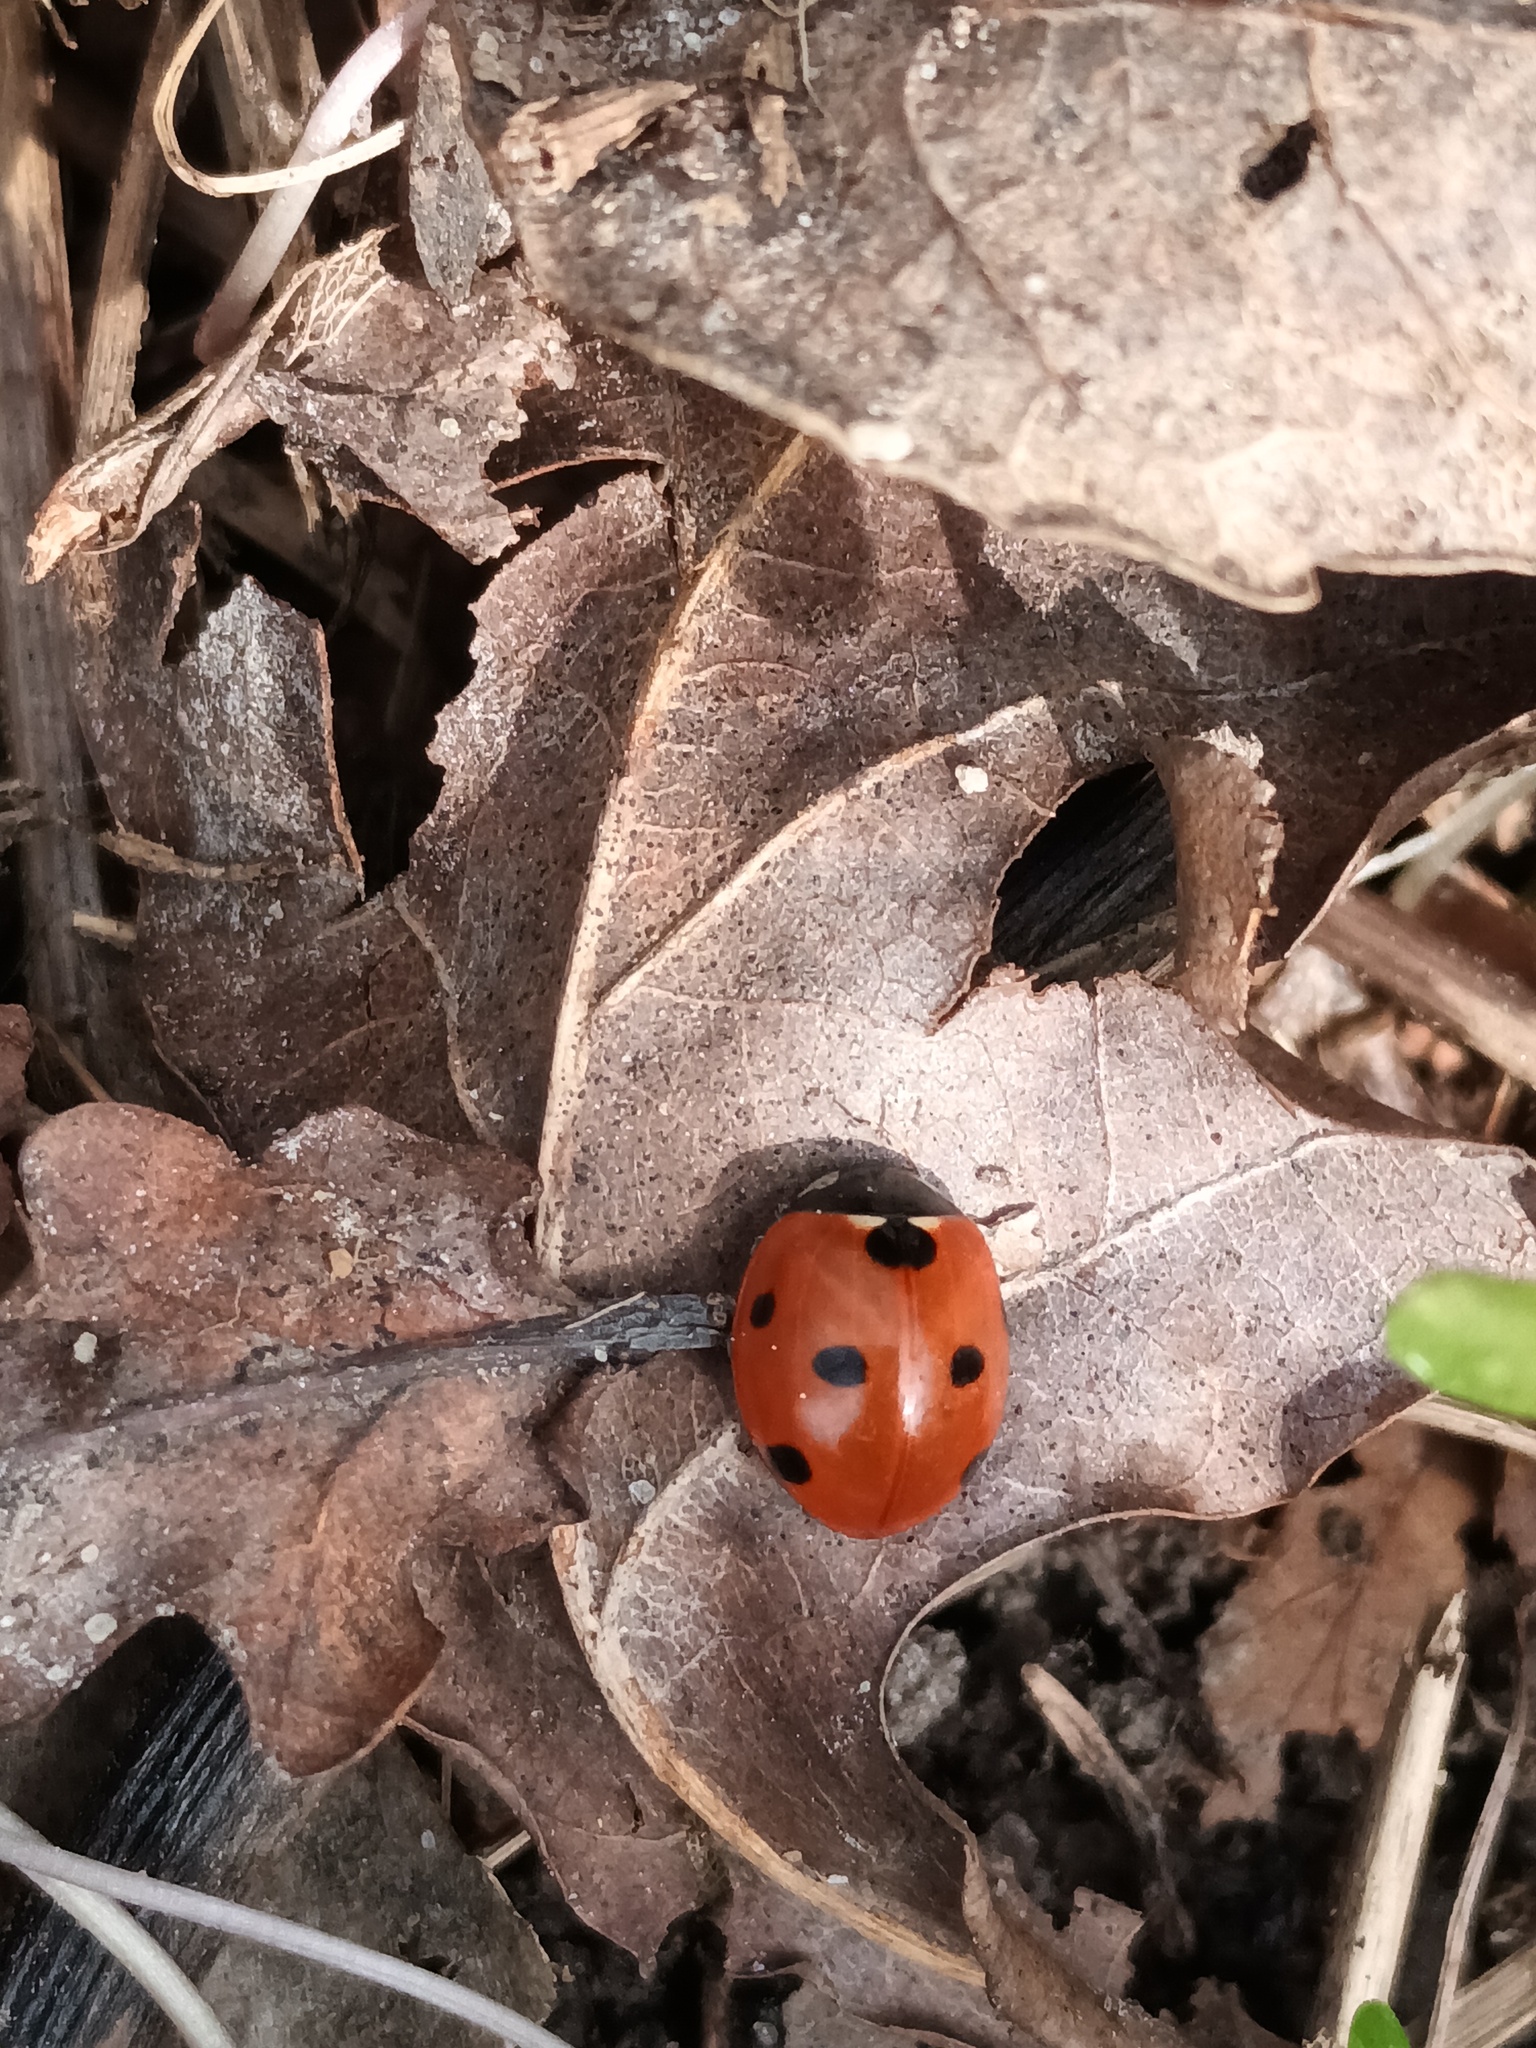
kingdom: Animalia
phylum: Arthropoda
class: Insecta
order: Coleoptera
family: Coccinellidae
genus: Coccinella
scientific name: Coccinella septempunctata
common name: Sevenspotted lady beetle
